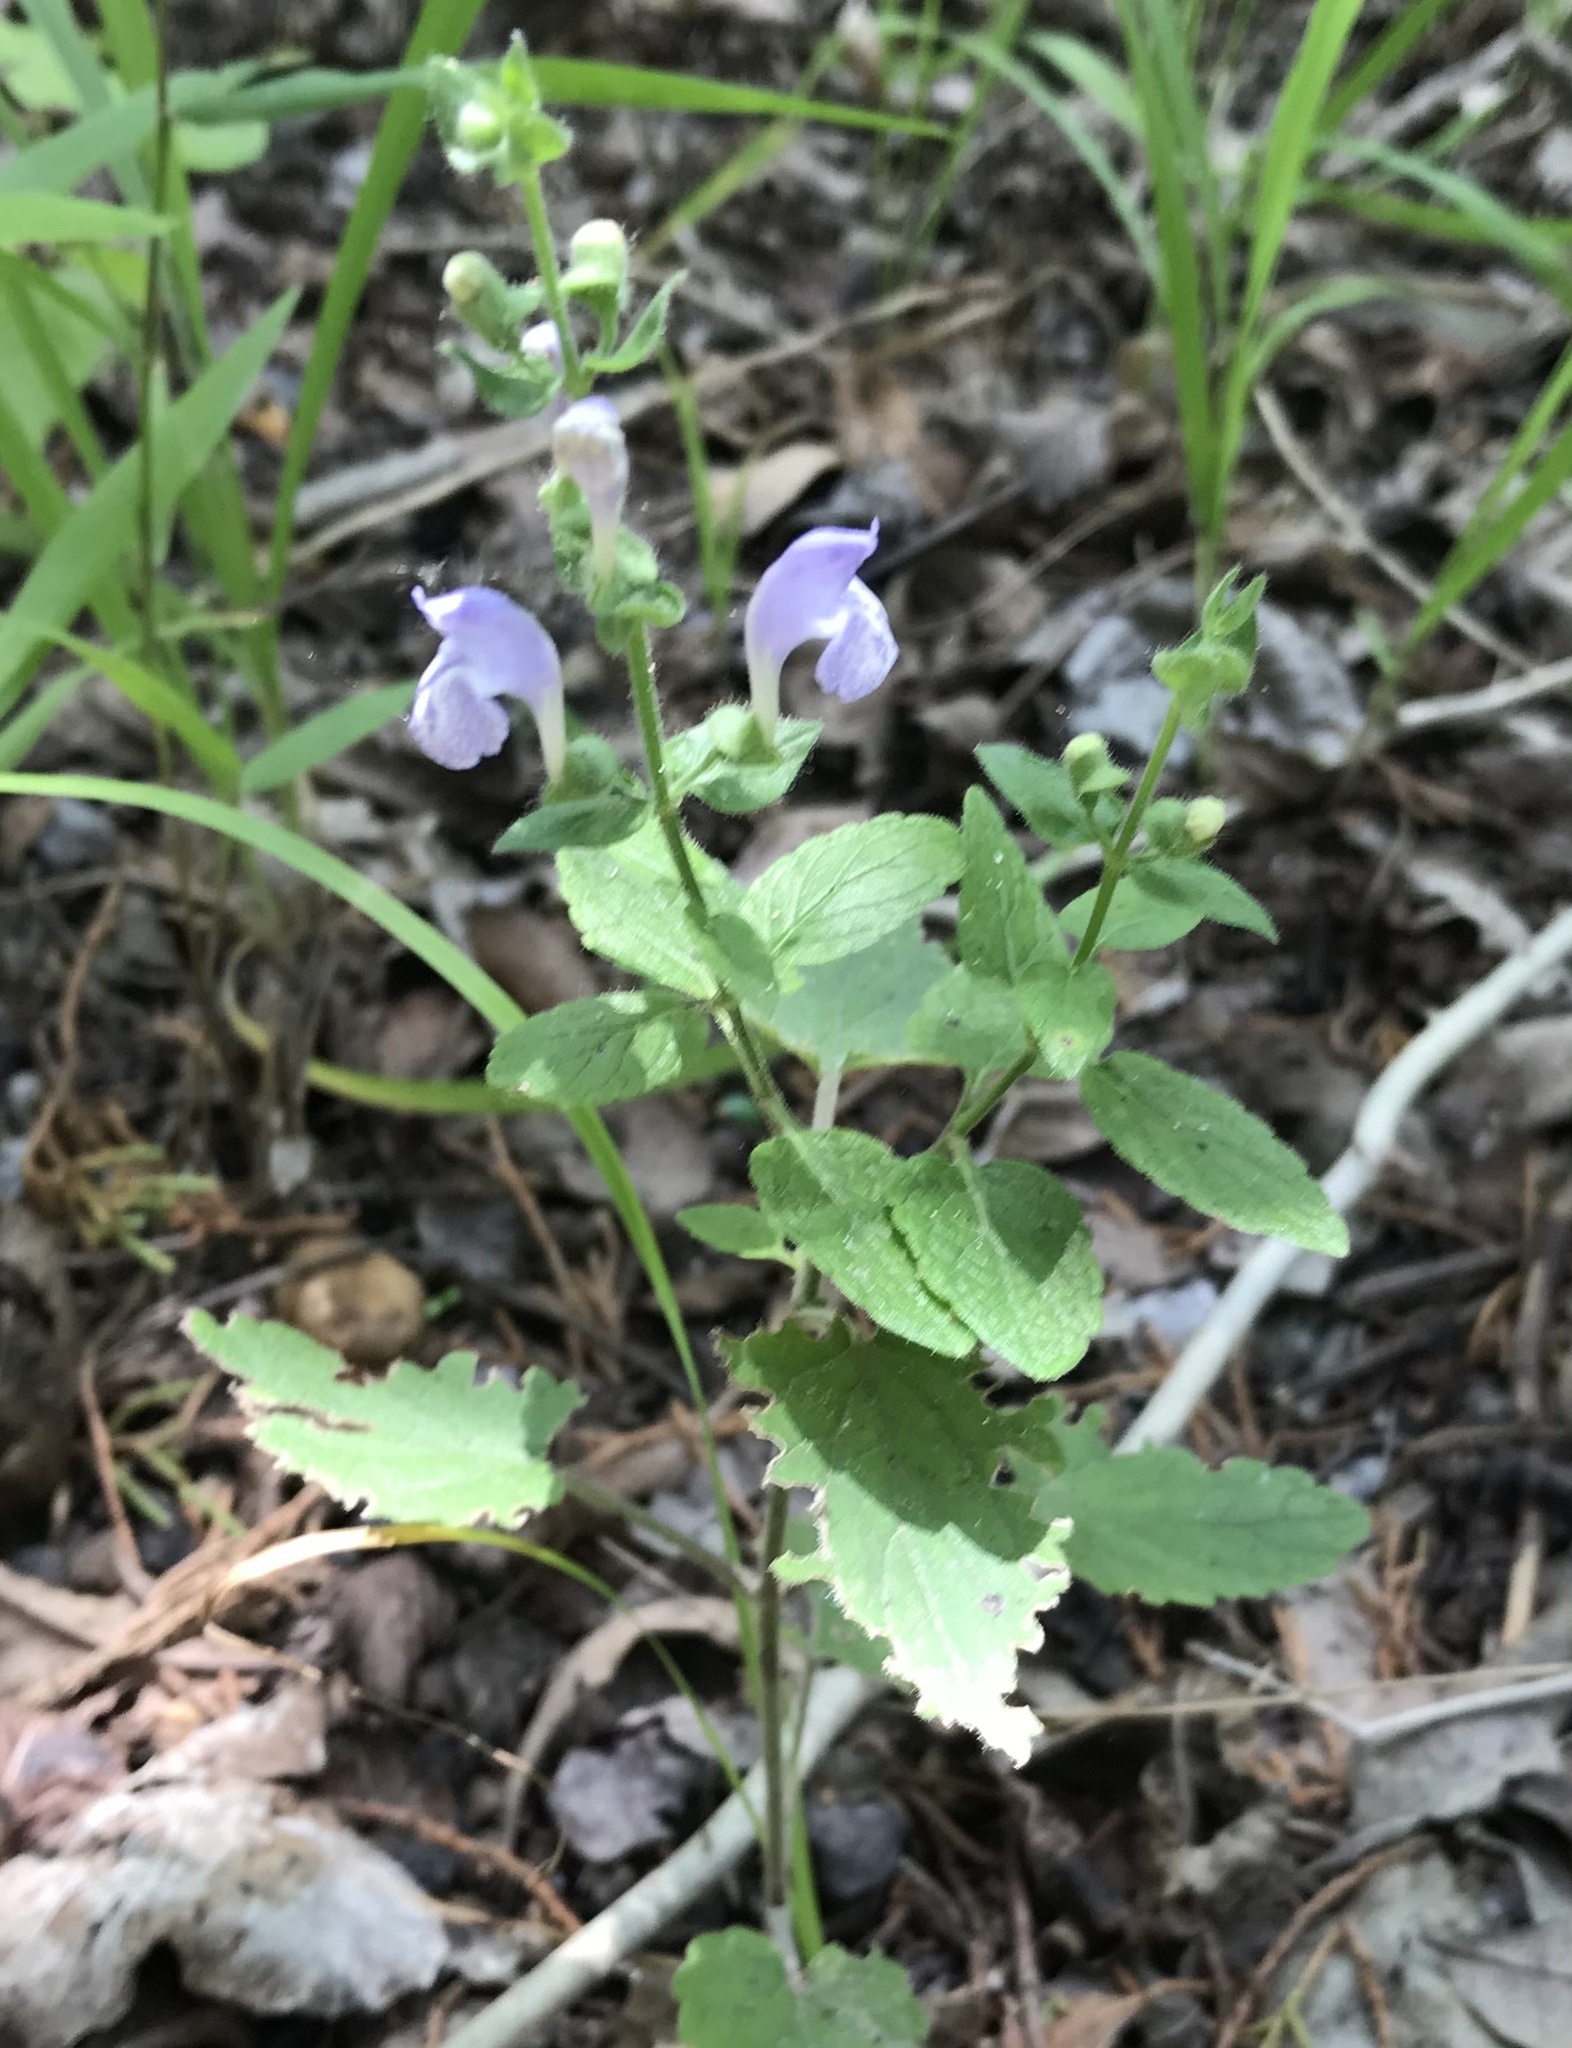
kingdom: Plantae
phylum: Tracheophyta
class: Magnoliopsida
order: Lamiales
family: Lamiaceae
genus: Scutellaria
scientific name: Scutellaria ovata
